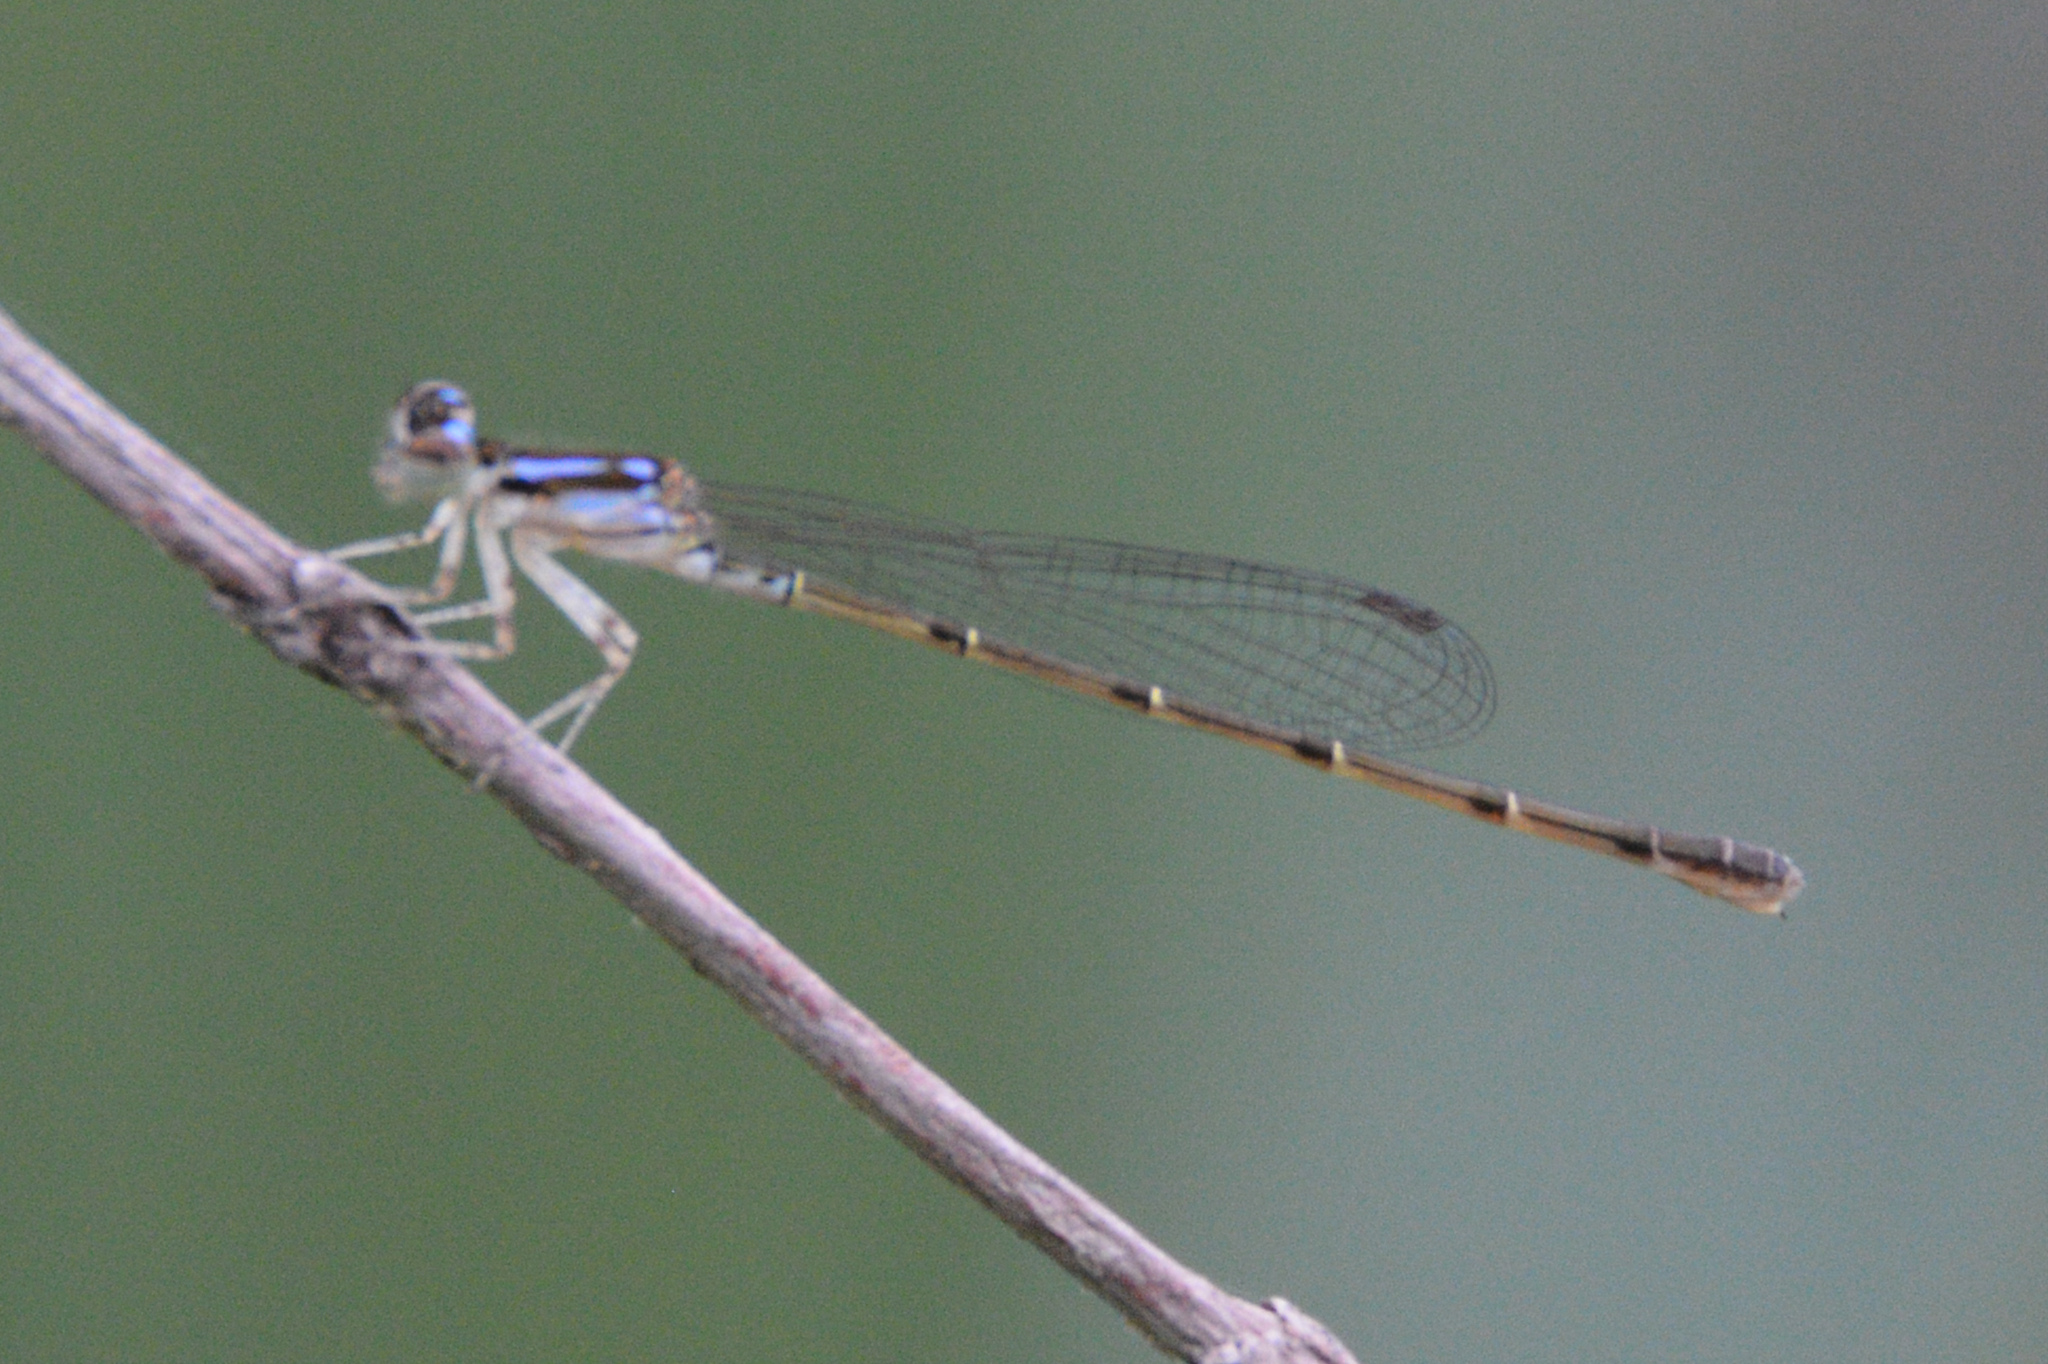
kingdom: Animalia
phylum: Arthropoda
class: Insecta
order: Odonata
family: Coenagrionidae
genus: Ischnura
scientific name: Ischnura posita
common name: Fragile forktail
